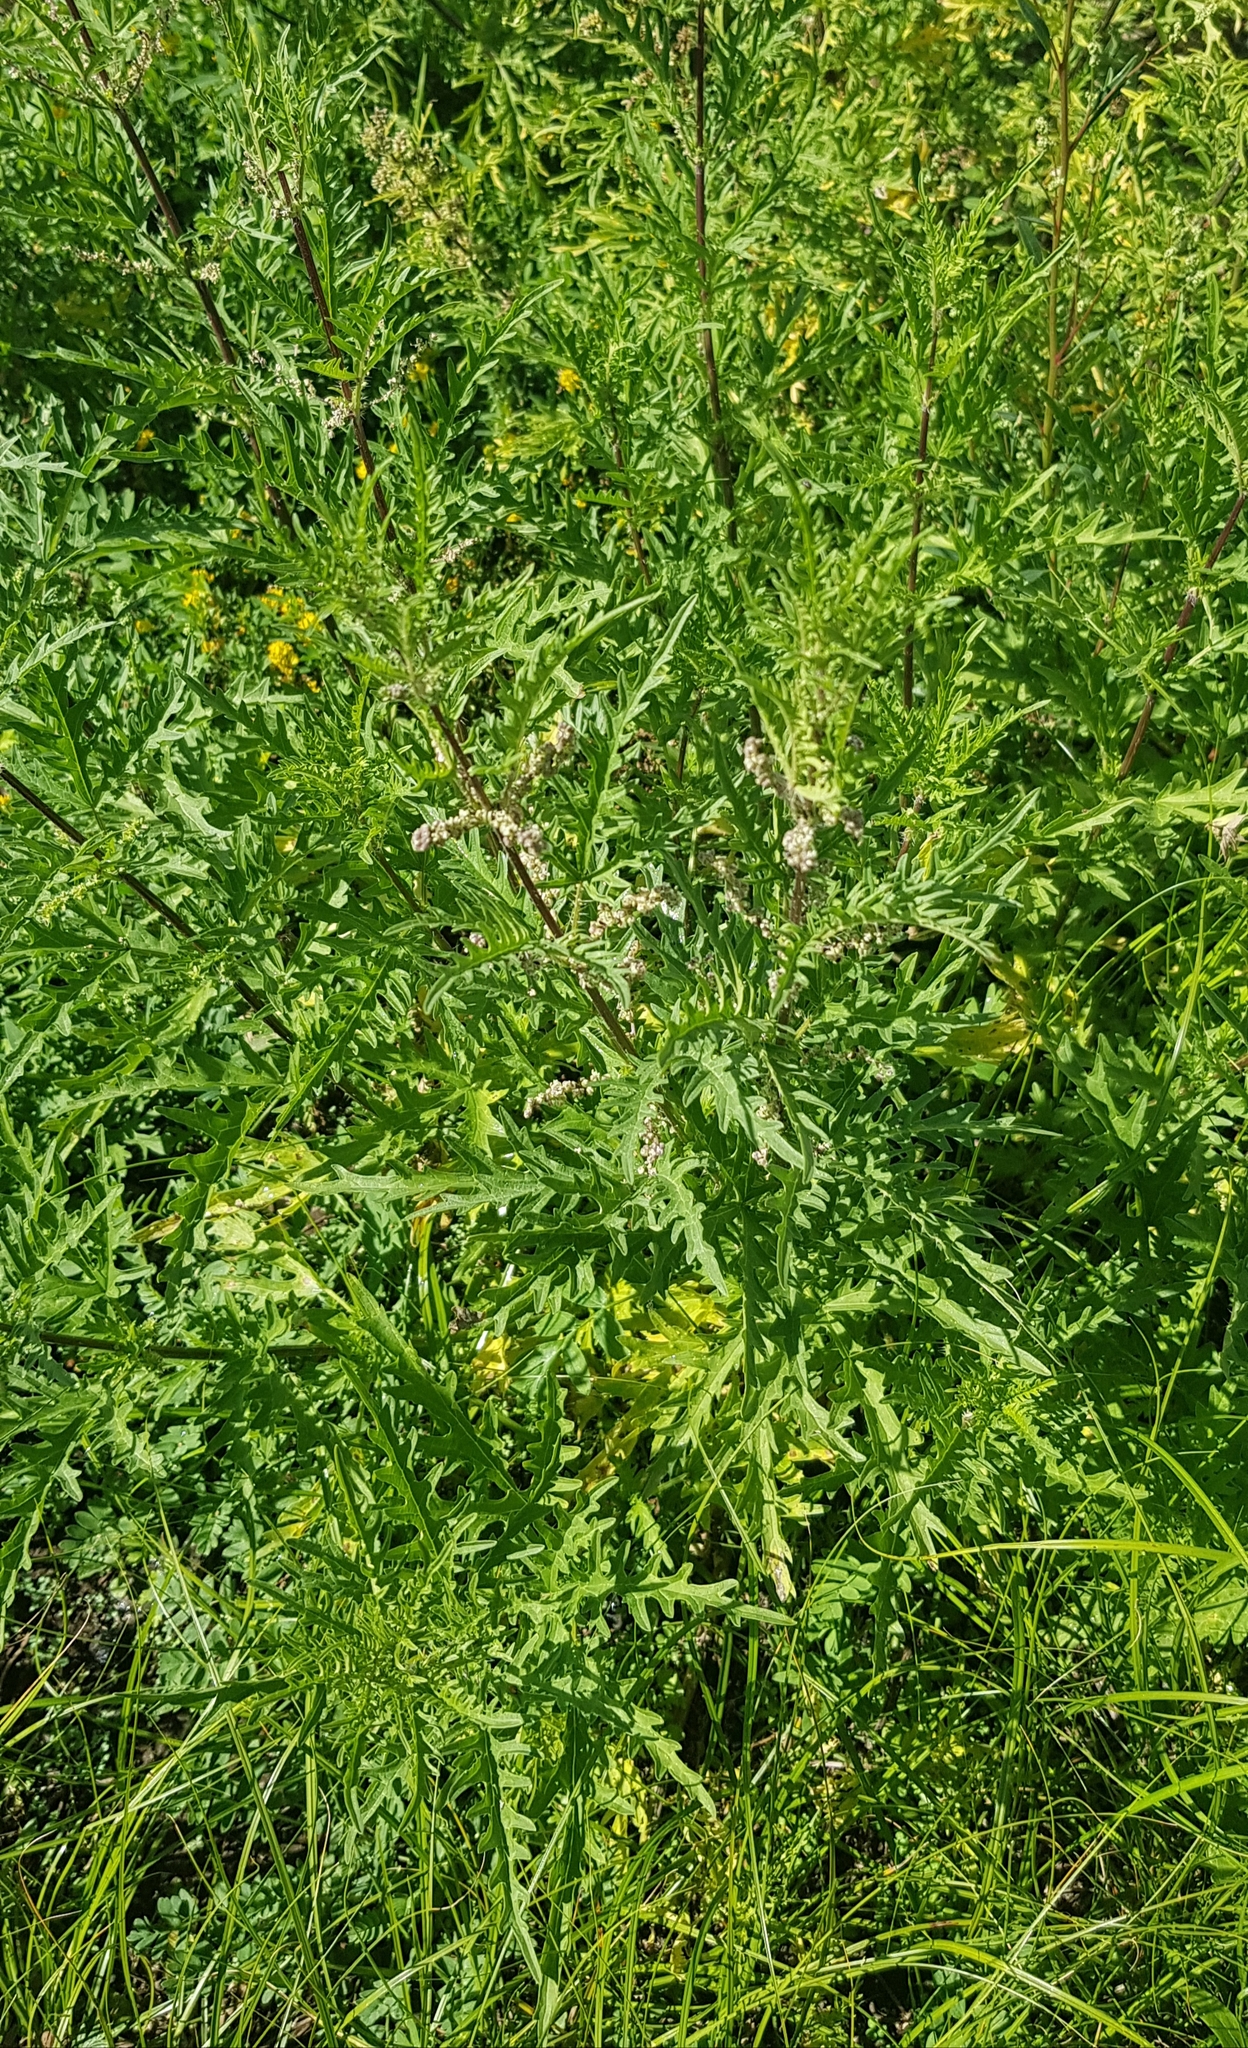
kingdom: Plantae
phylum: Tracheophyta
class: Magnoliopsida
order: Rosales
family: Urticaceae
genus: Urtica
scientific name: Urtica cannabina
